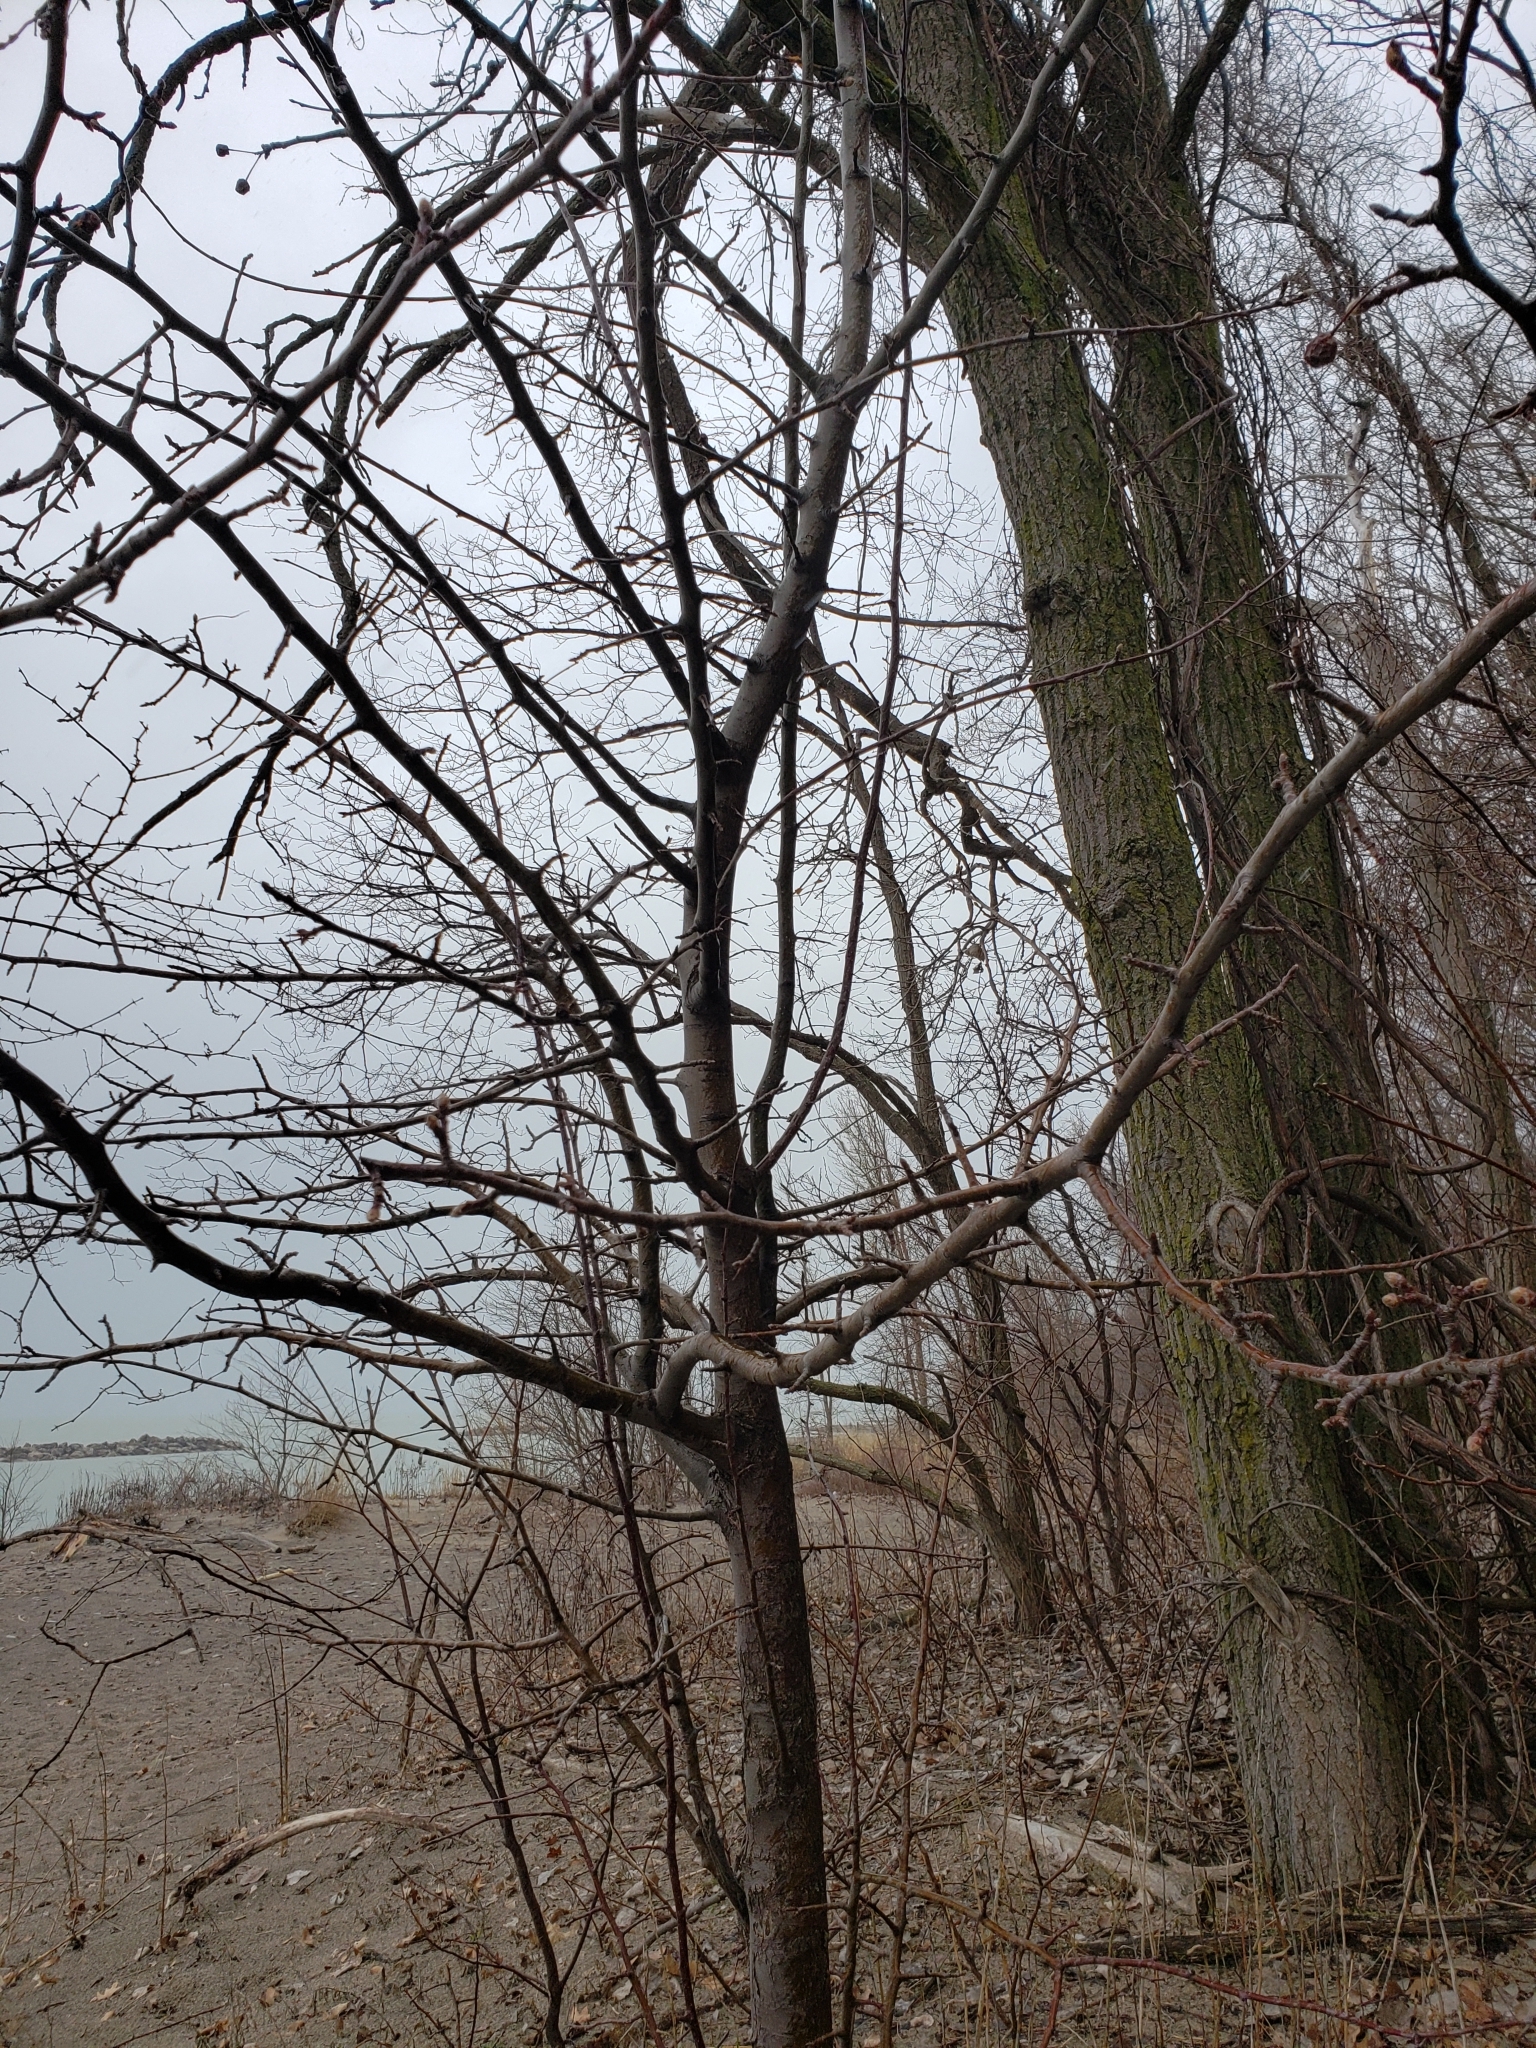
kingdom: Plantae
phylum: Tracheophyta
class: Magnoliopsida
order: Fabales
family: Fabaceae
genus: Robinia
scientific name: Robinia pseudoacacia
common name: Black locust
